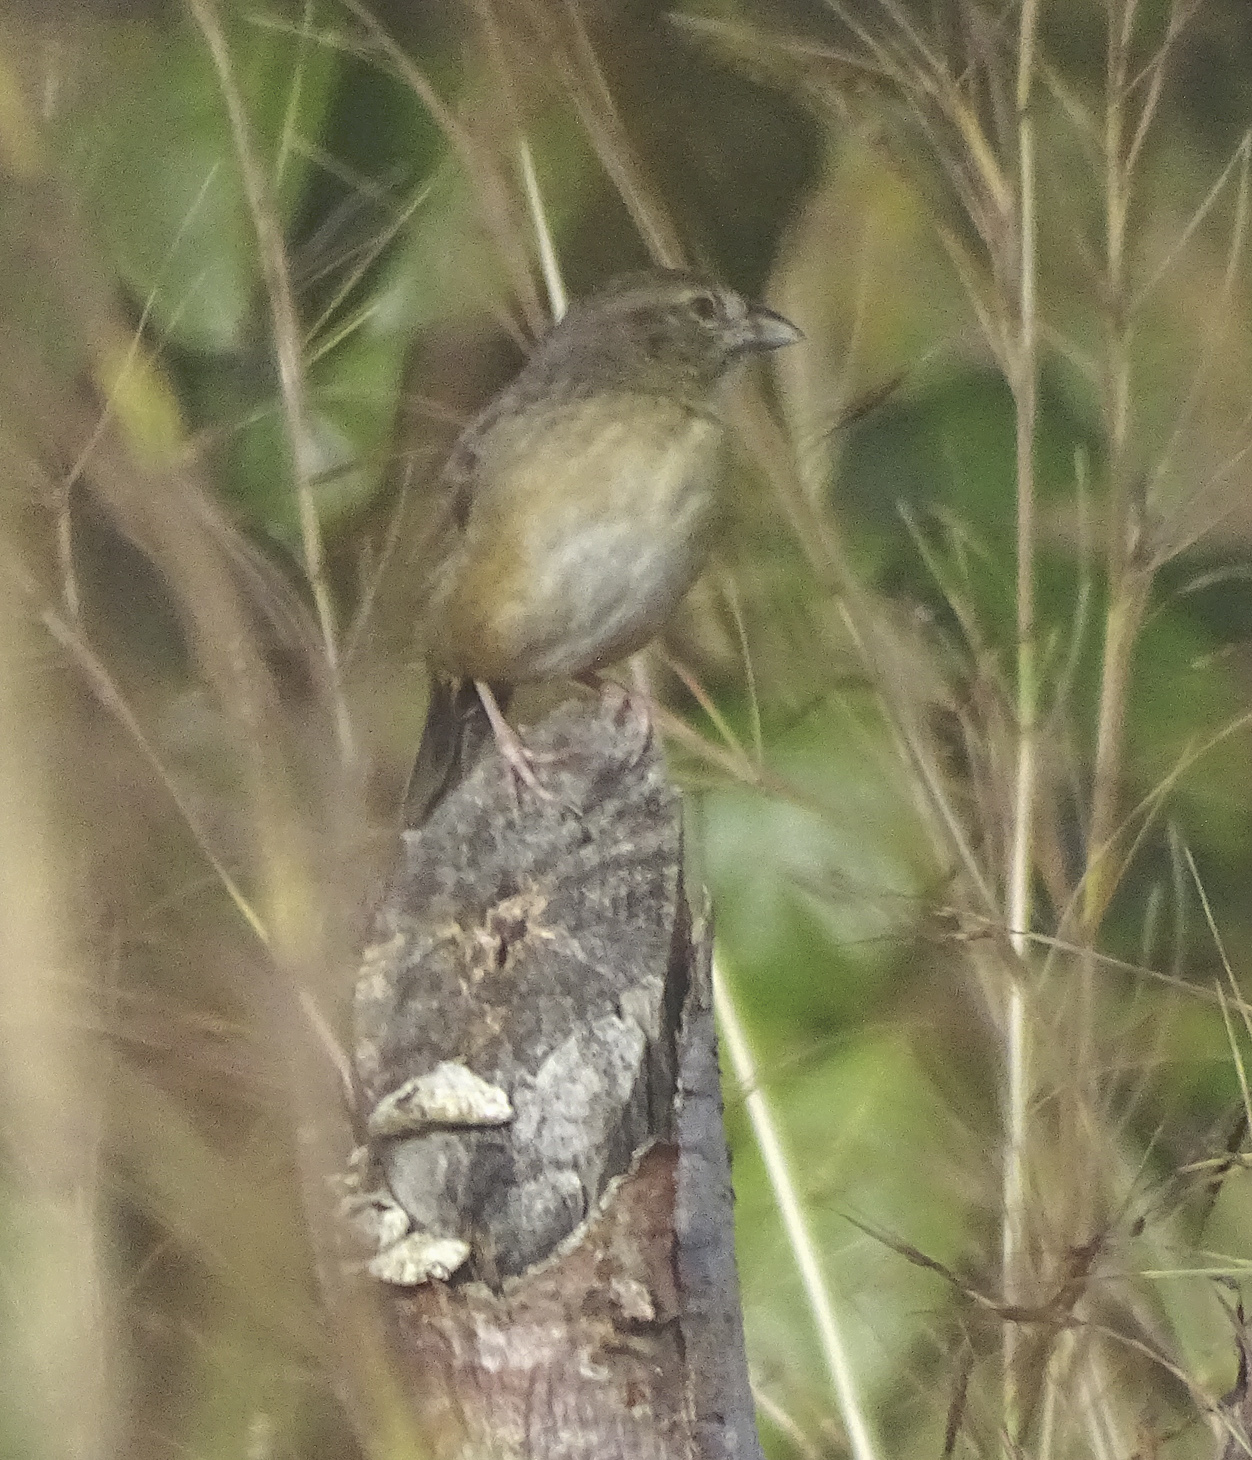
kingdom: Animalia
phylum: Chordata
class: Aves
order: Passeriformes
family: Passerellidae
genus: Peucaea
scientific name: Peucaea botterii
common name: Botteri's sparrow
